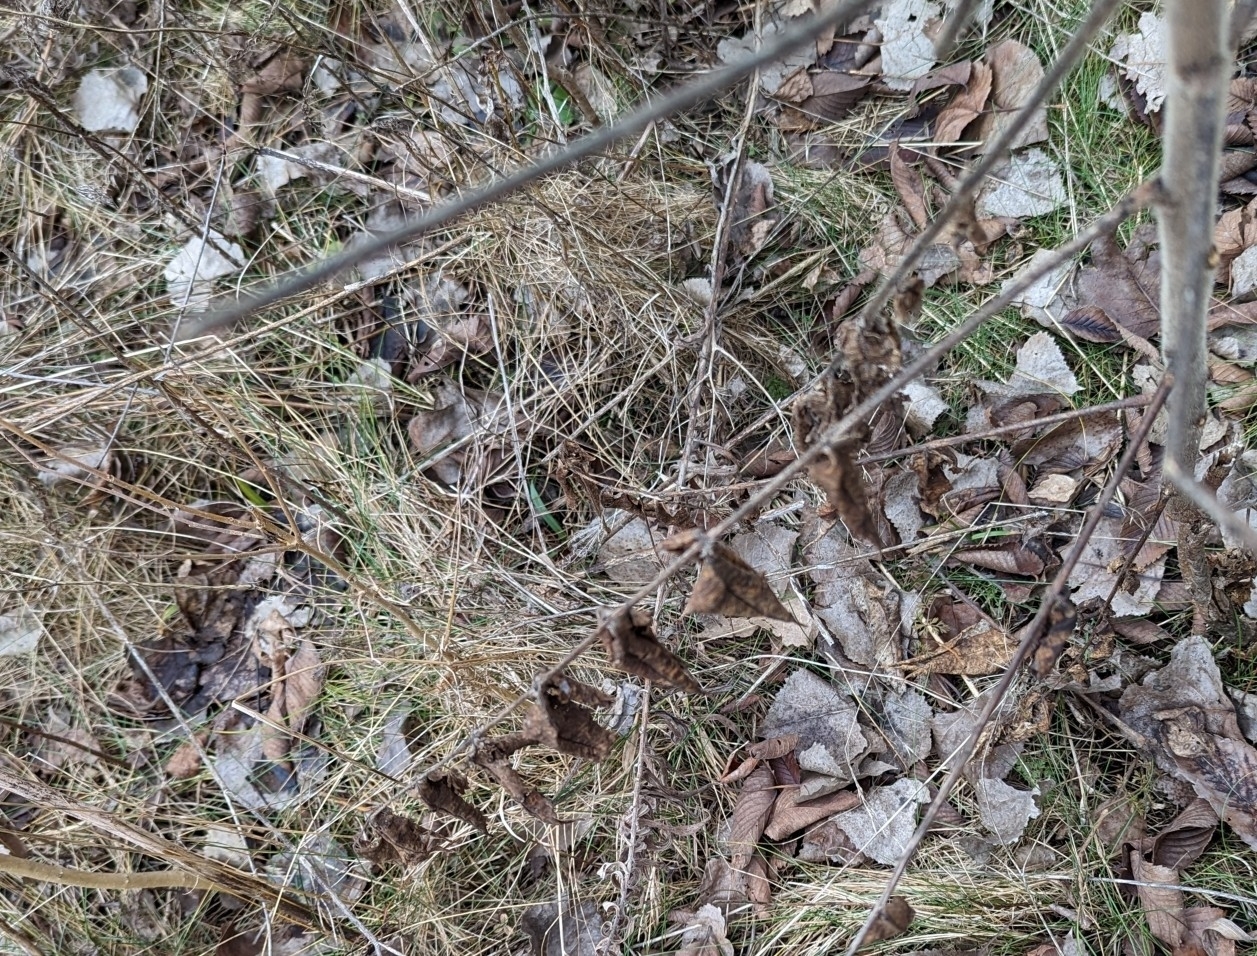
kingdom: Plantae
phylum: Tracheophyta
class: Magnoliopsida
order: Sapindales
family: Anacardiaceae
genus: Rhus
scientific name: Rhus typhina
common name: Staghorn sumac
